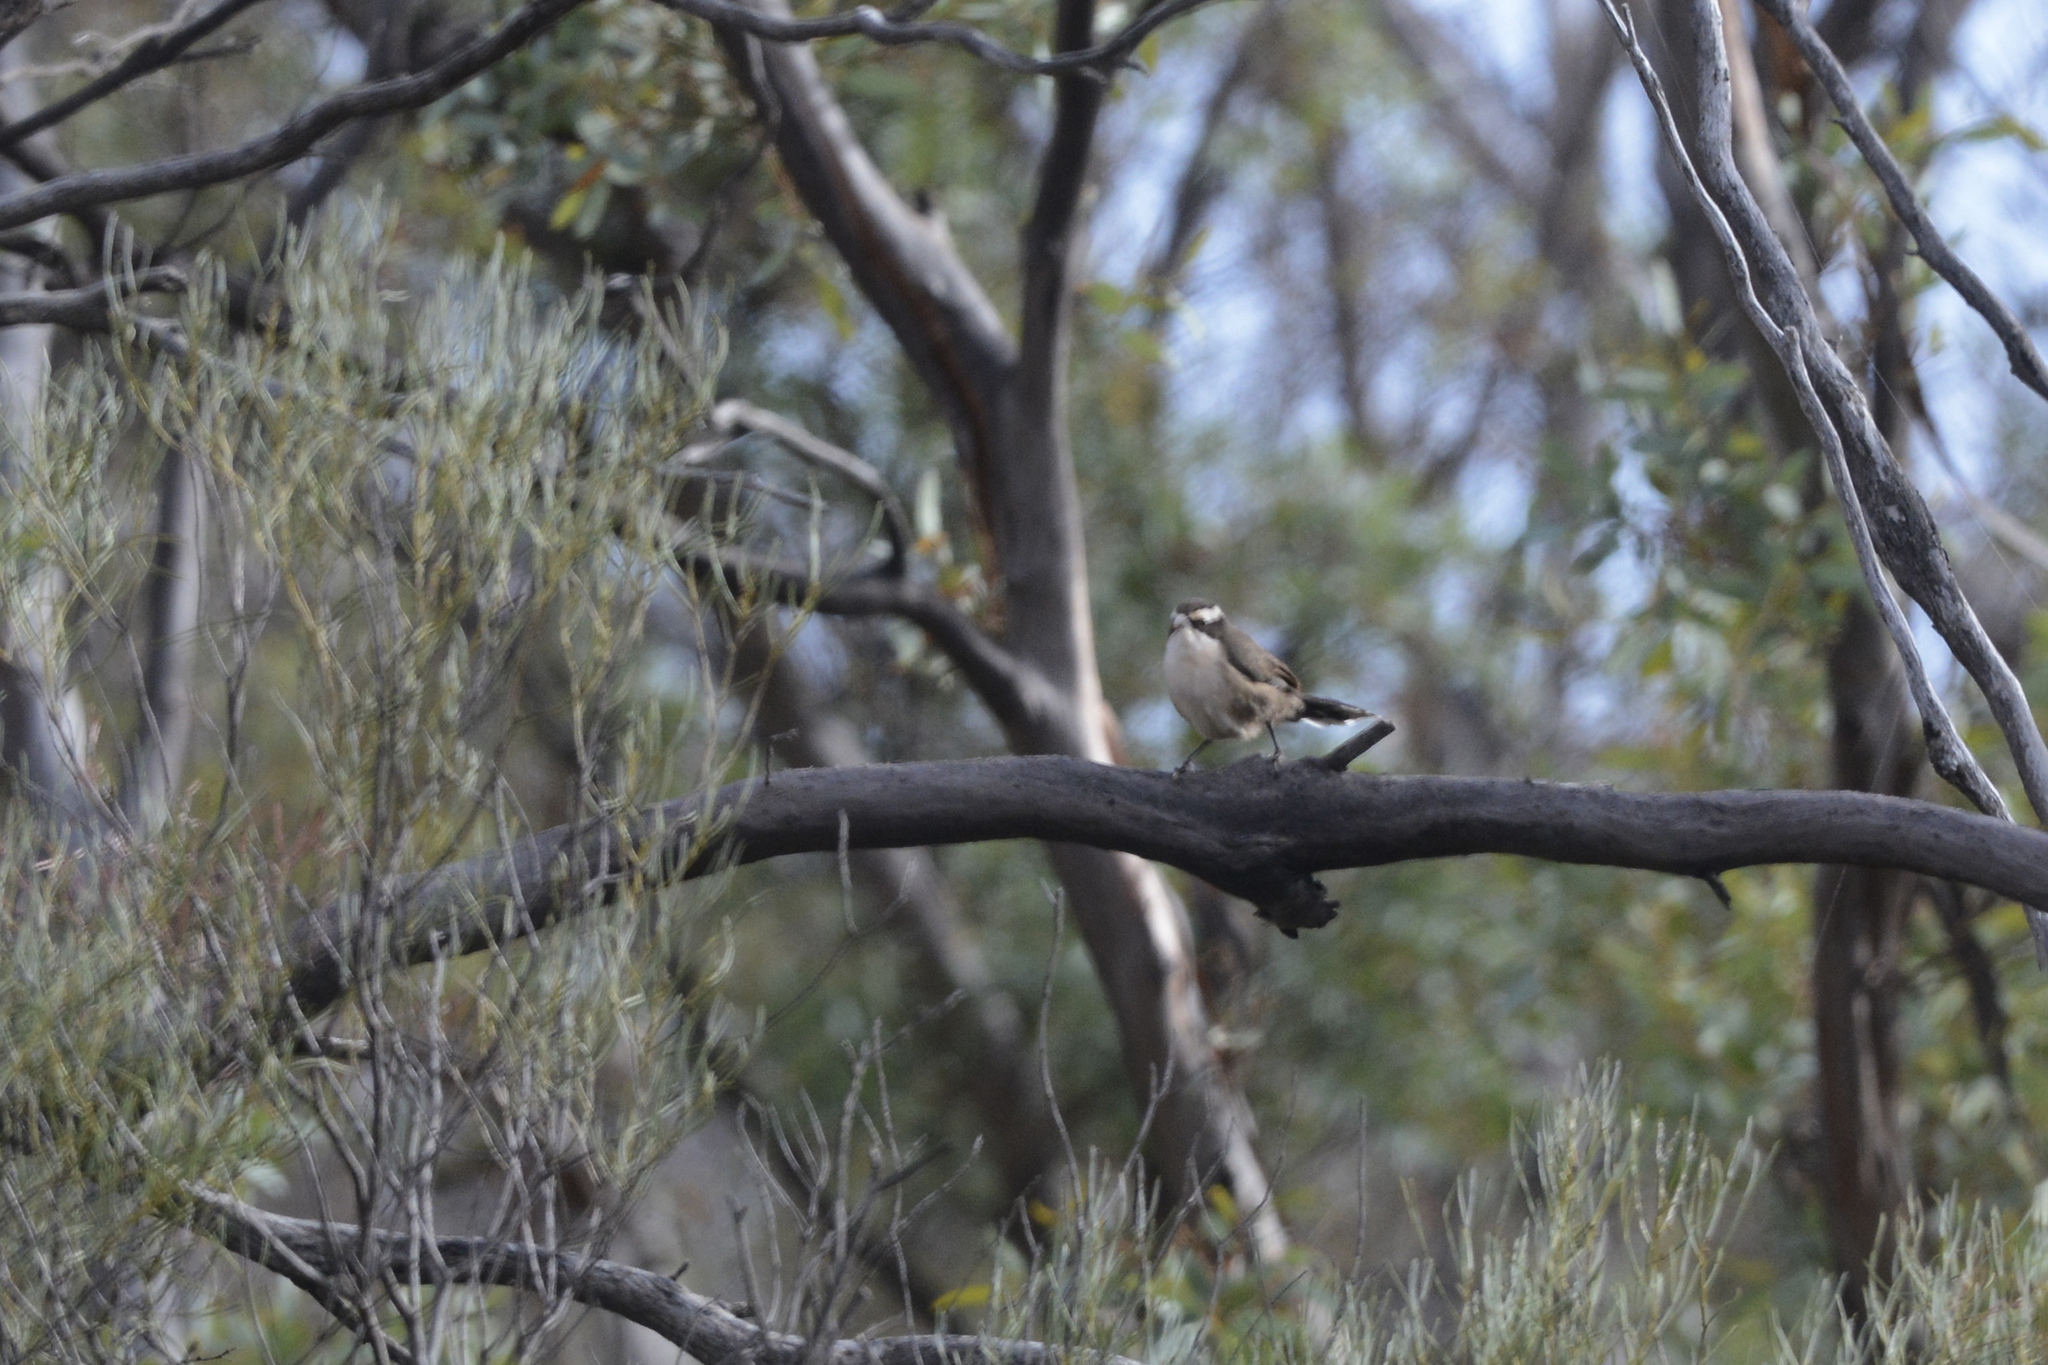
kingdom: Animalia
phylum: Chordata
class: Aves
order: Passeriformes
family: Pomatostomidae
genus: Pomatostomus
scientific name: Pomatostomus superciliosus
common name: White-browed babbler
